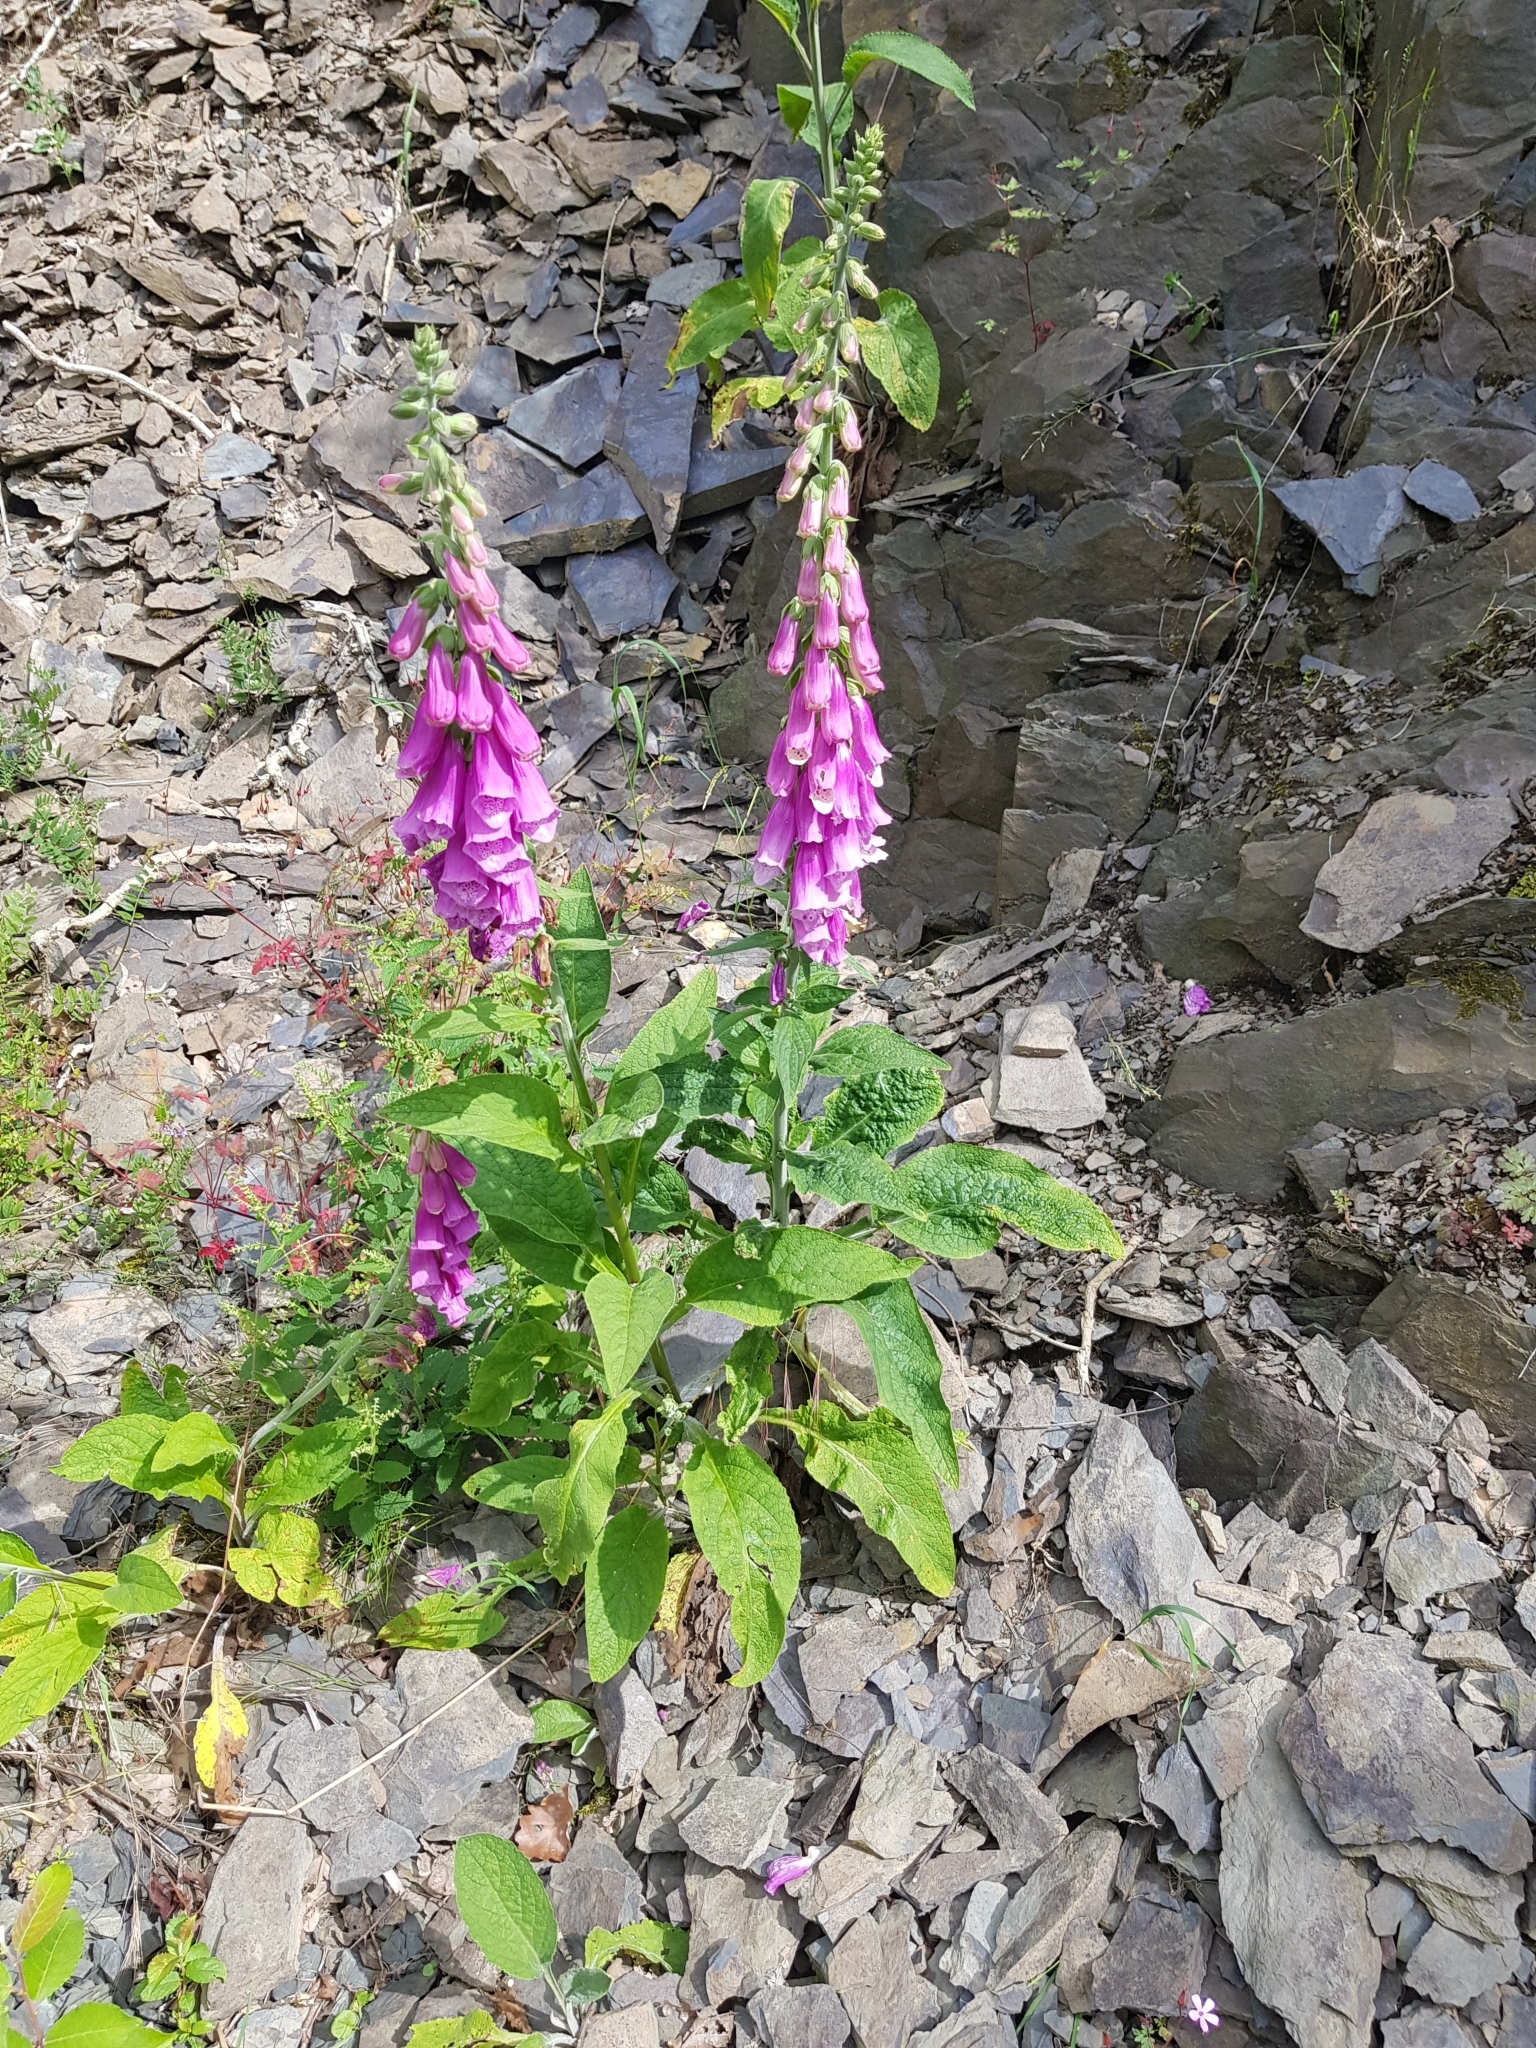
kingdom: Plantae
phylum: Tracheophyta
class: Magnoliopsida
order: Lamiales
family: Plantaginaceae
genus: Digitalis
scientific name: Digitalis purpurea
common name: Foxglove
